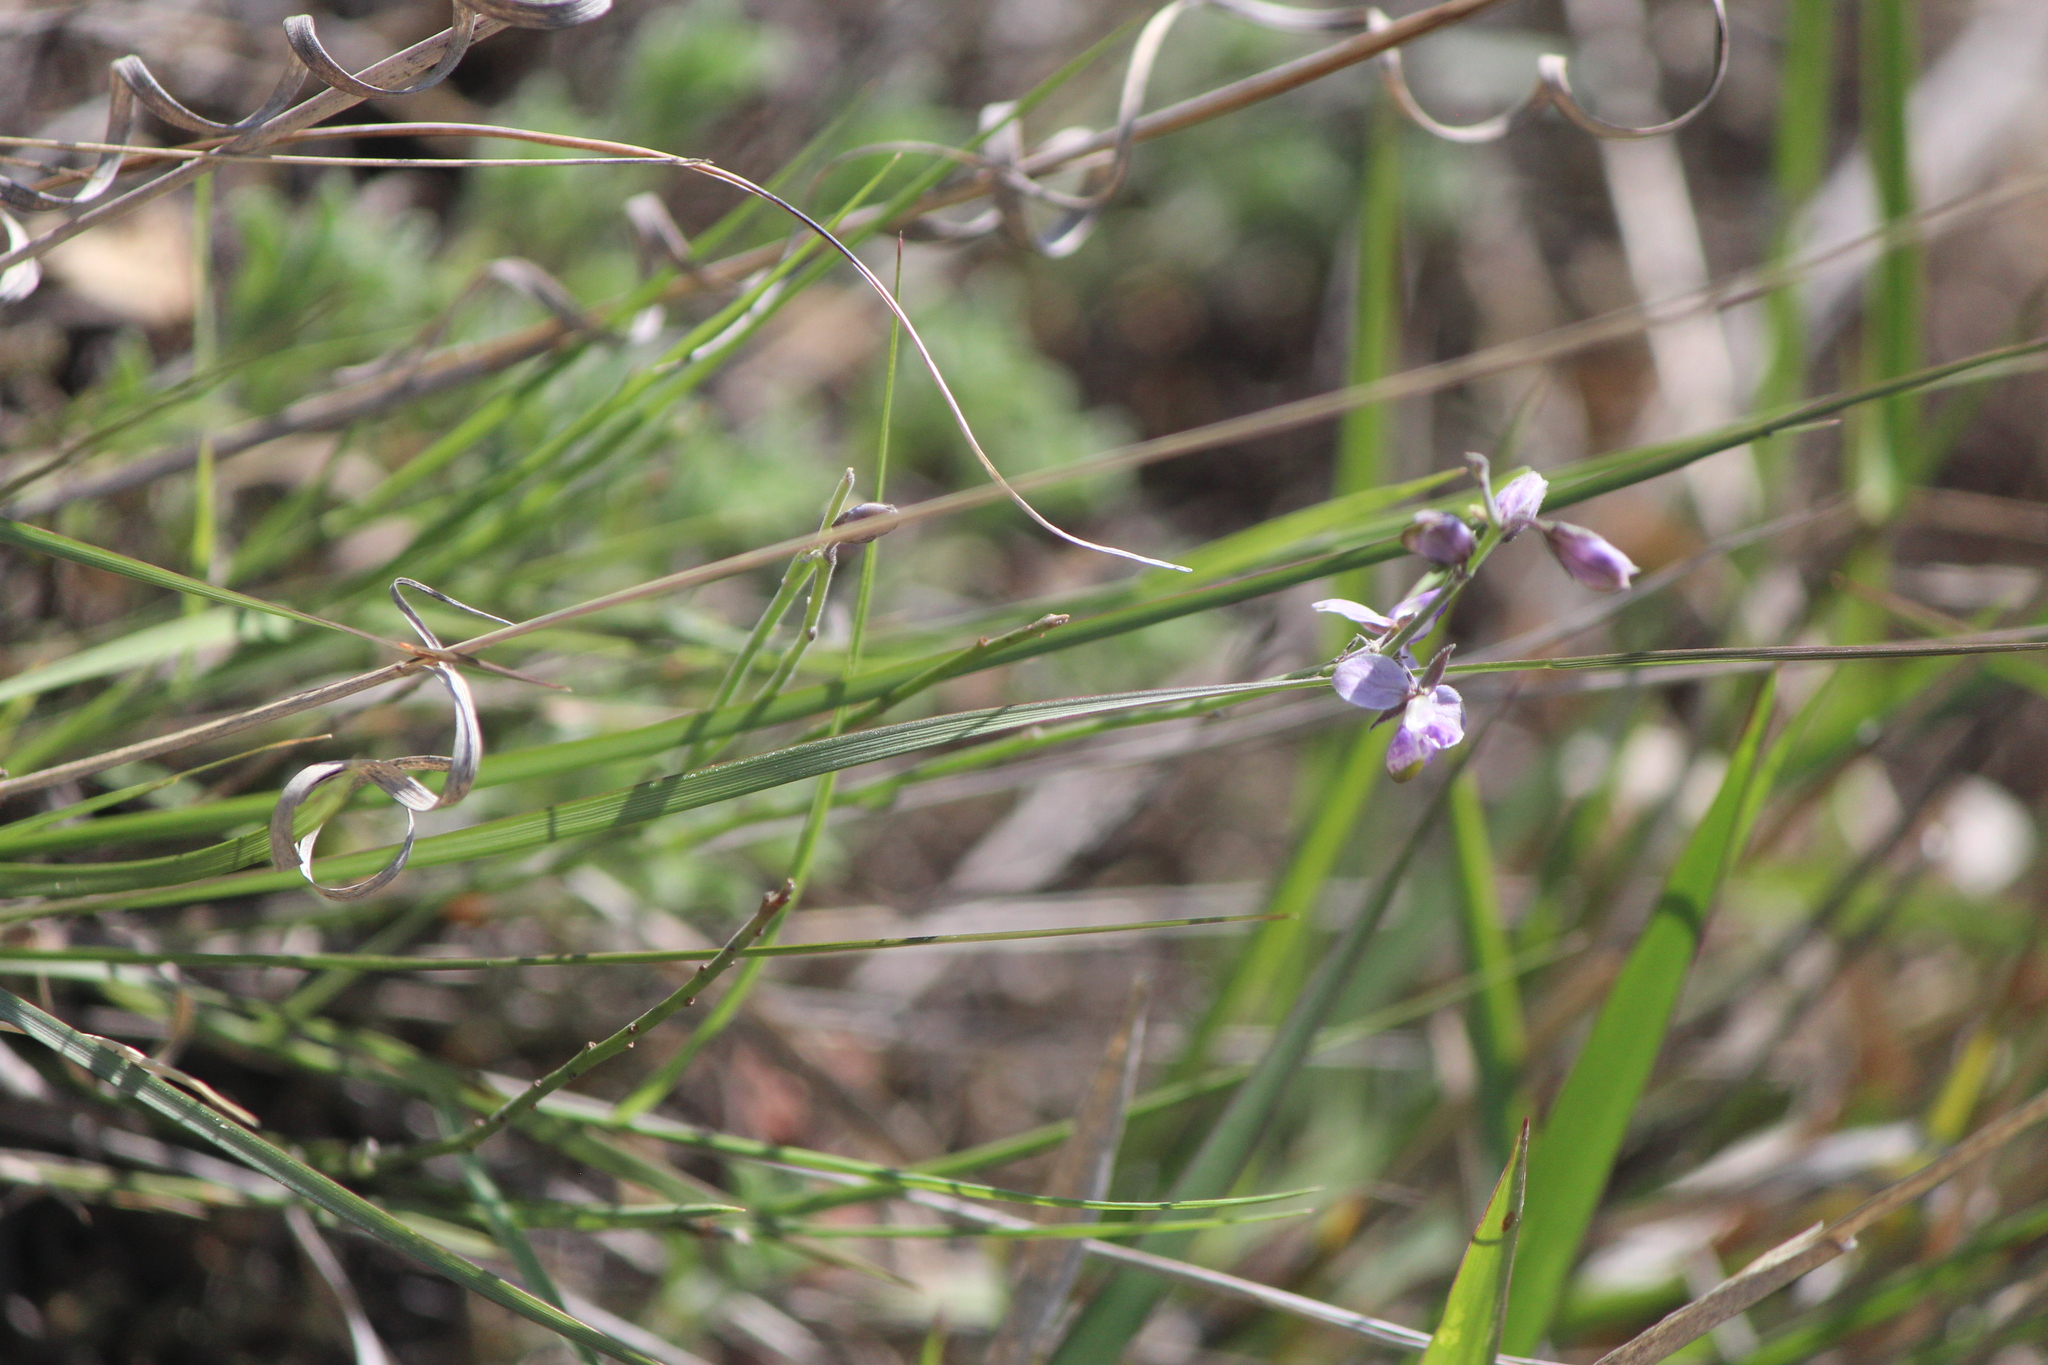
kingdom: Plantae
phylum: Tracheophyta
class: Magnoliopsida
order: Fabales
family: Polygalaceae
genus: Hebecarpa
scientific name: Hebecarpa barbeyana
